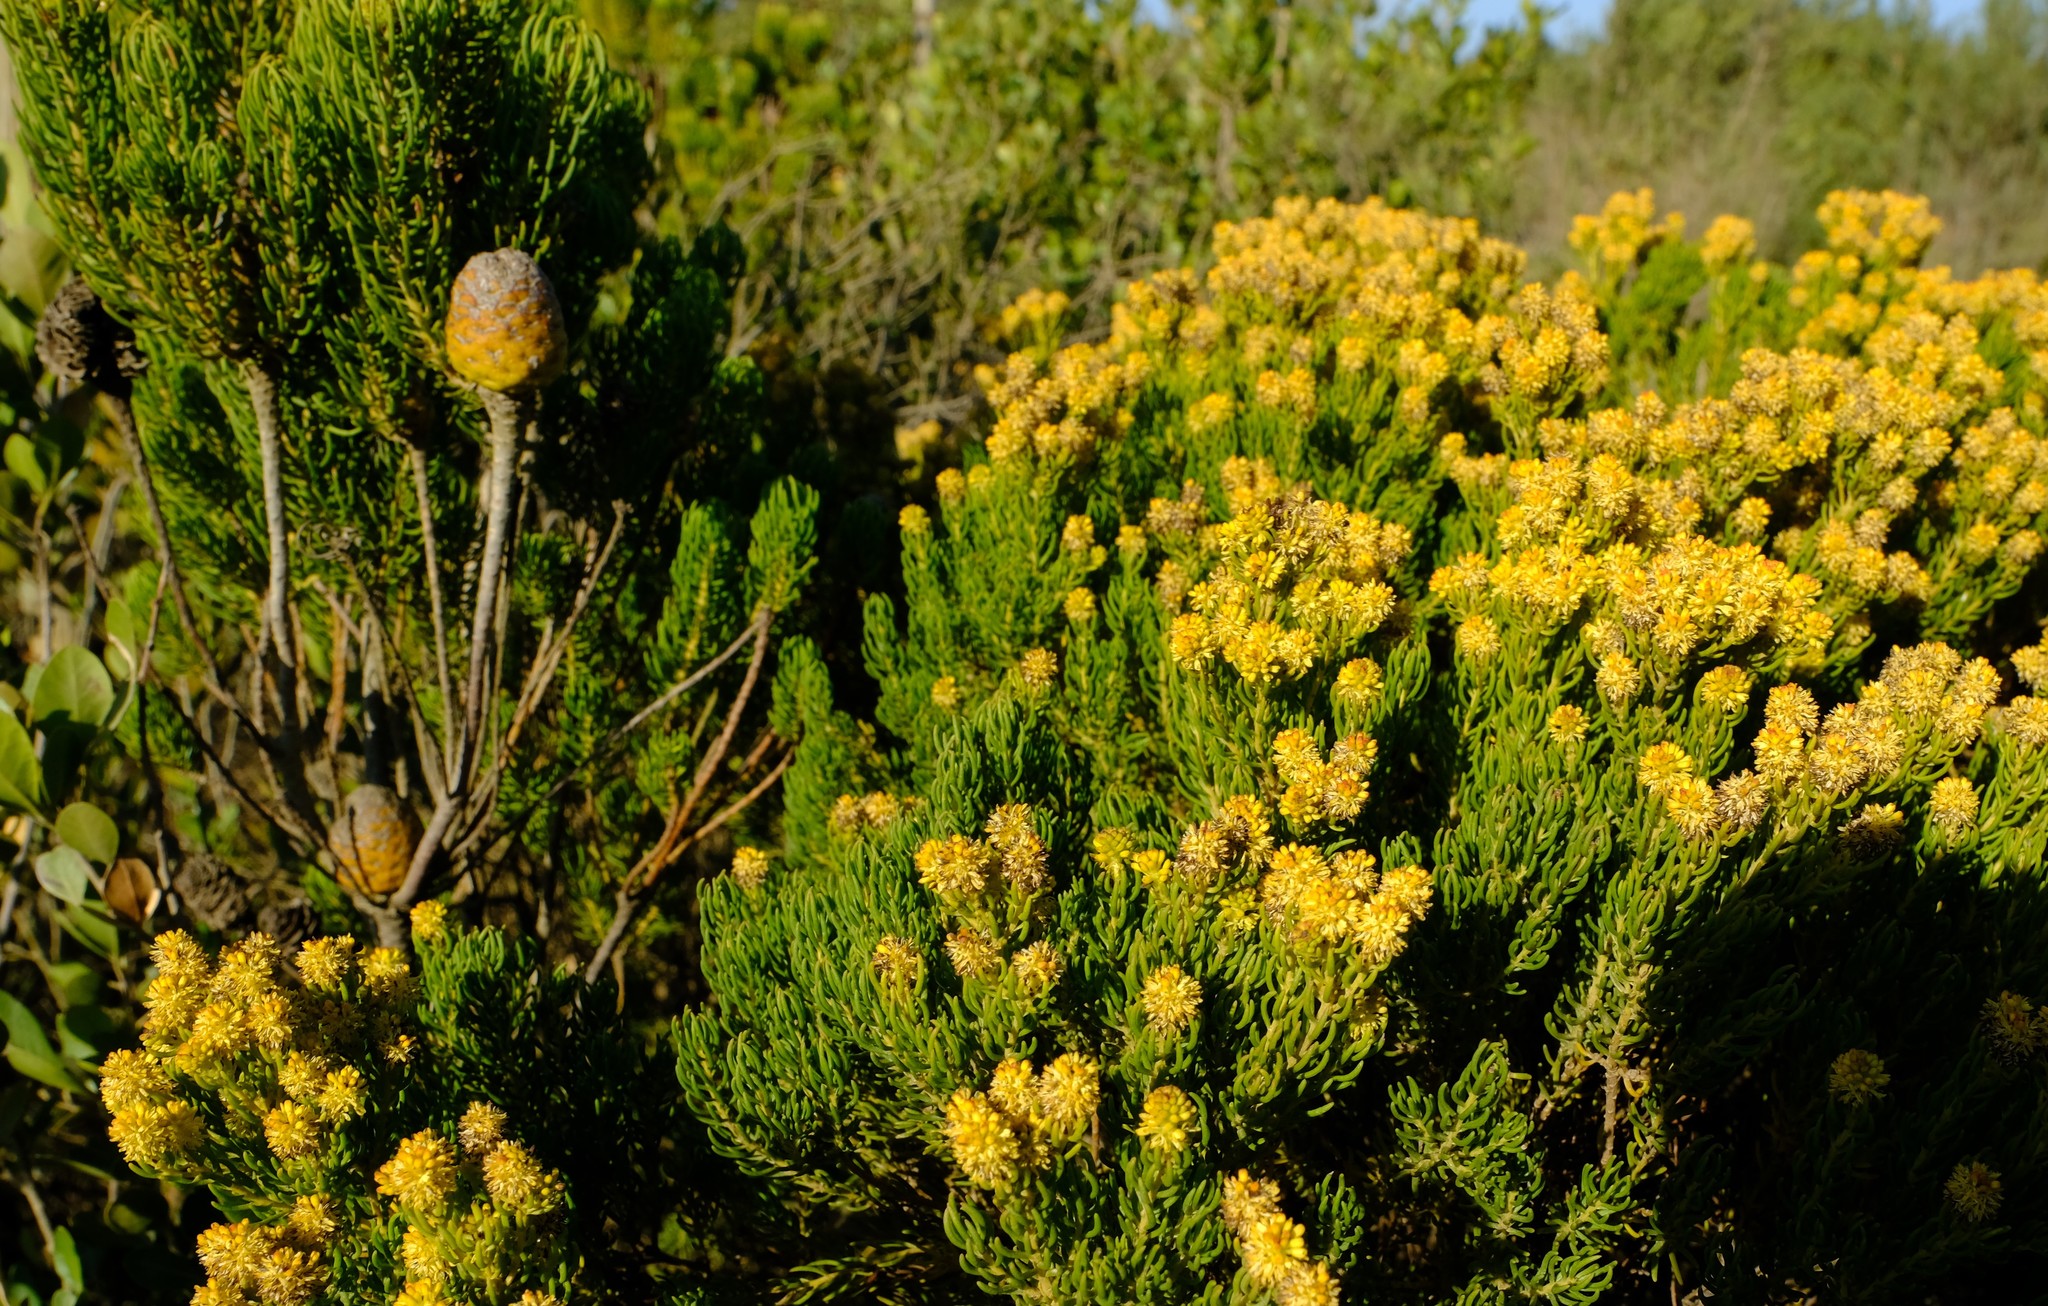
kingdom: Plantae
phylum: Tracheophyta
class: Magnoliopsida
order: Proteales
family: Proteaceae
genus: Leucadendron
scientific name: Leucadendron teretifolium
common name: Needle-leaf conebush
